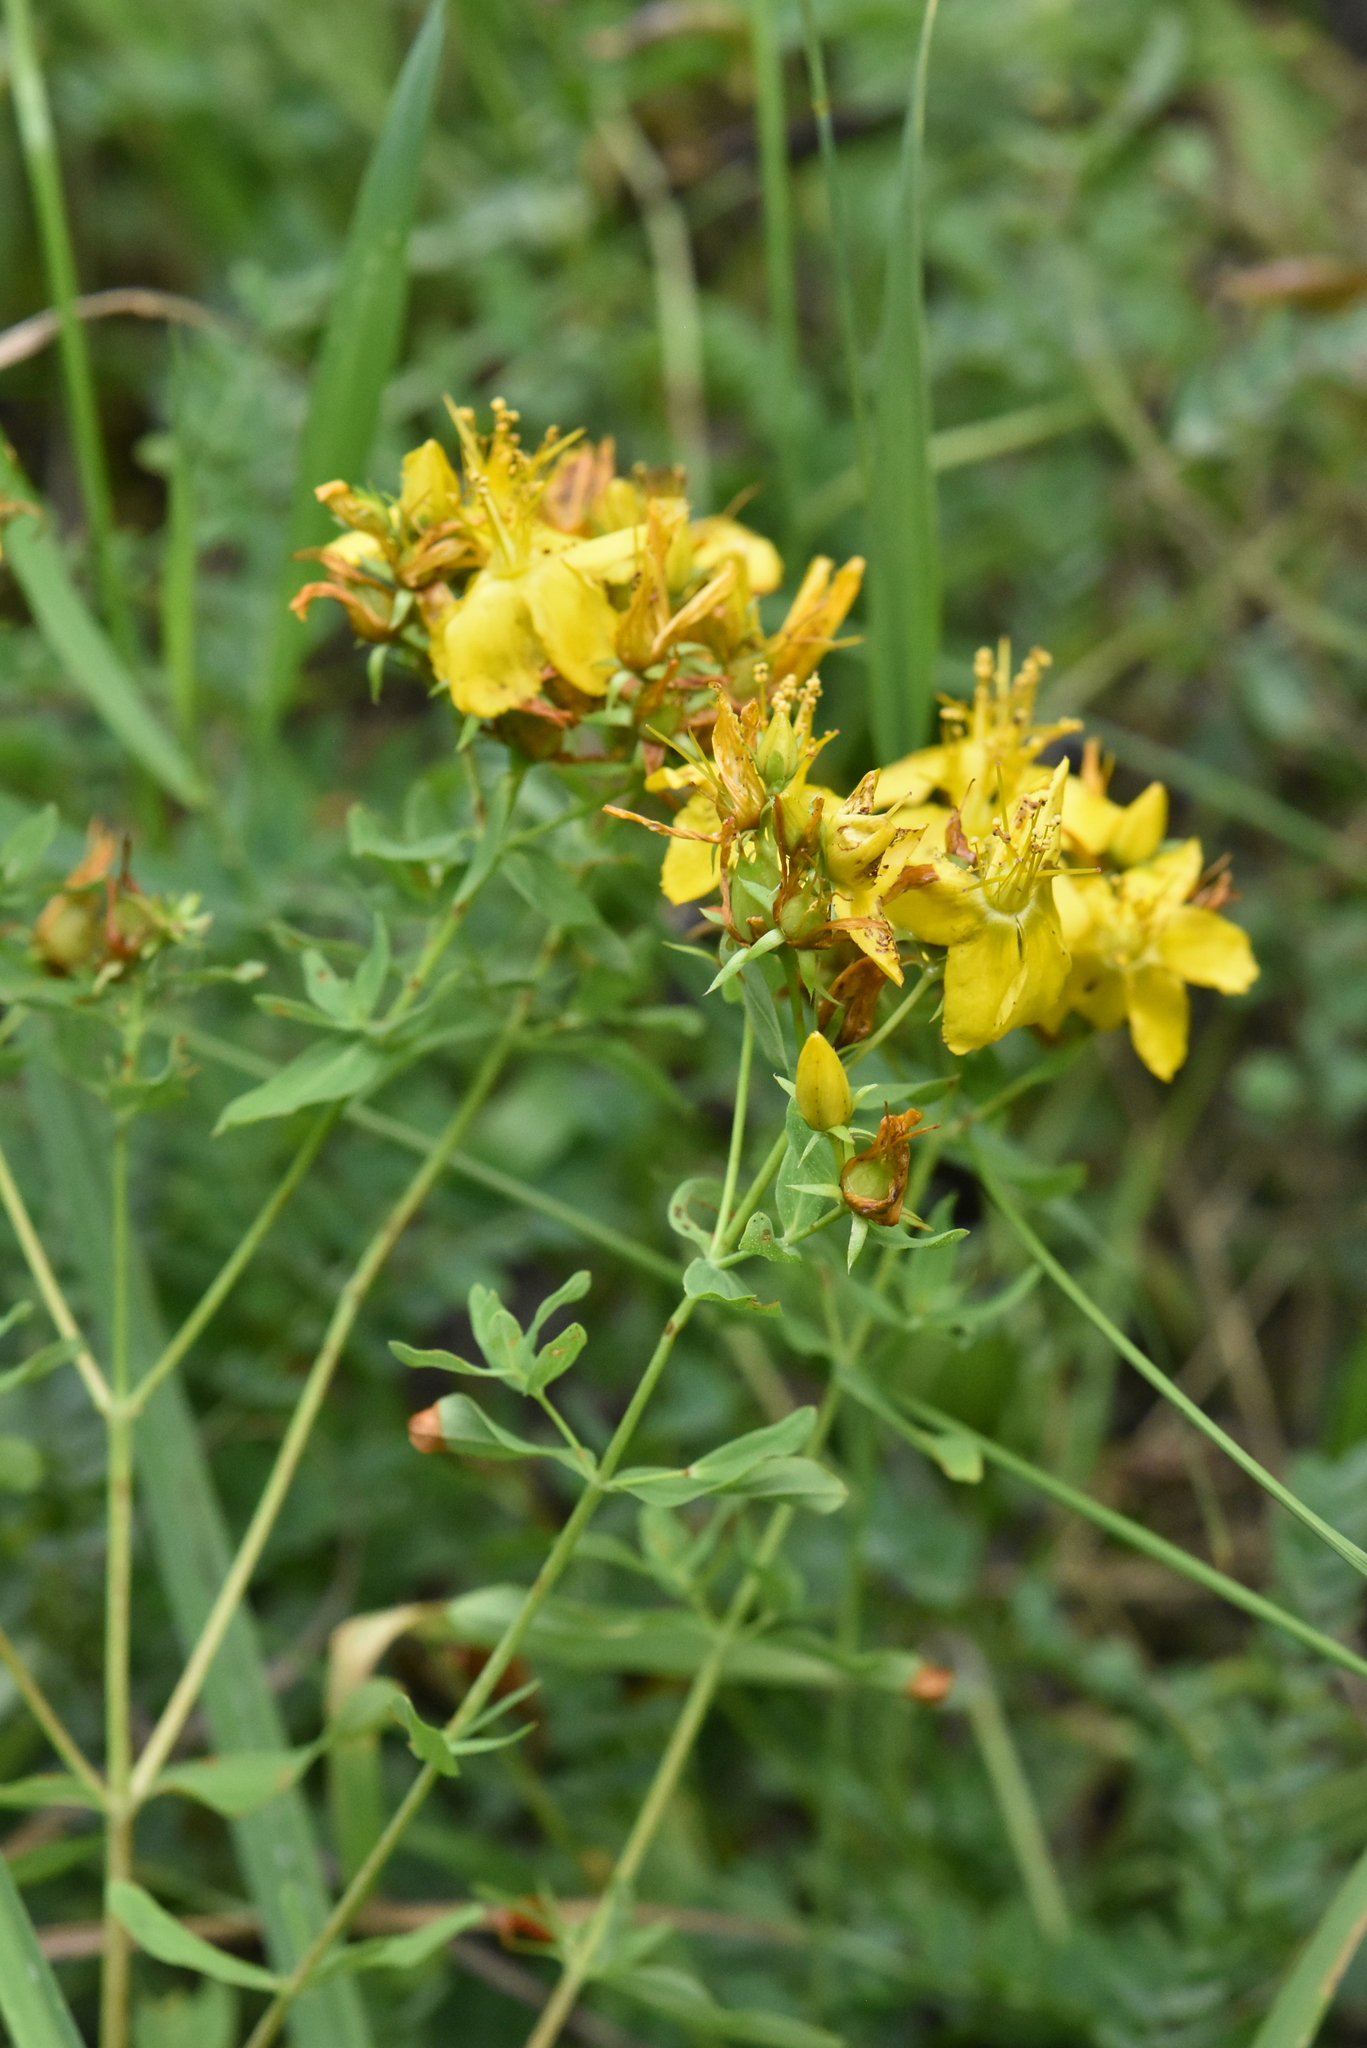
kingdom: Plantae
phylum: Tracheophyta
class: Magnoliopsida
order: Malpighiales
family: Hypericaceae
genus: Hypericum
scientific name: Hypericum perforatum
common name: Common st. johnswort
